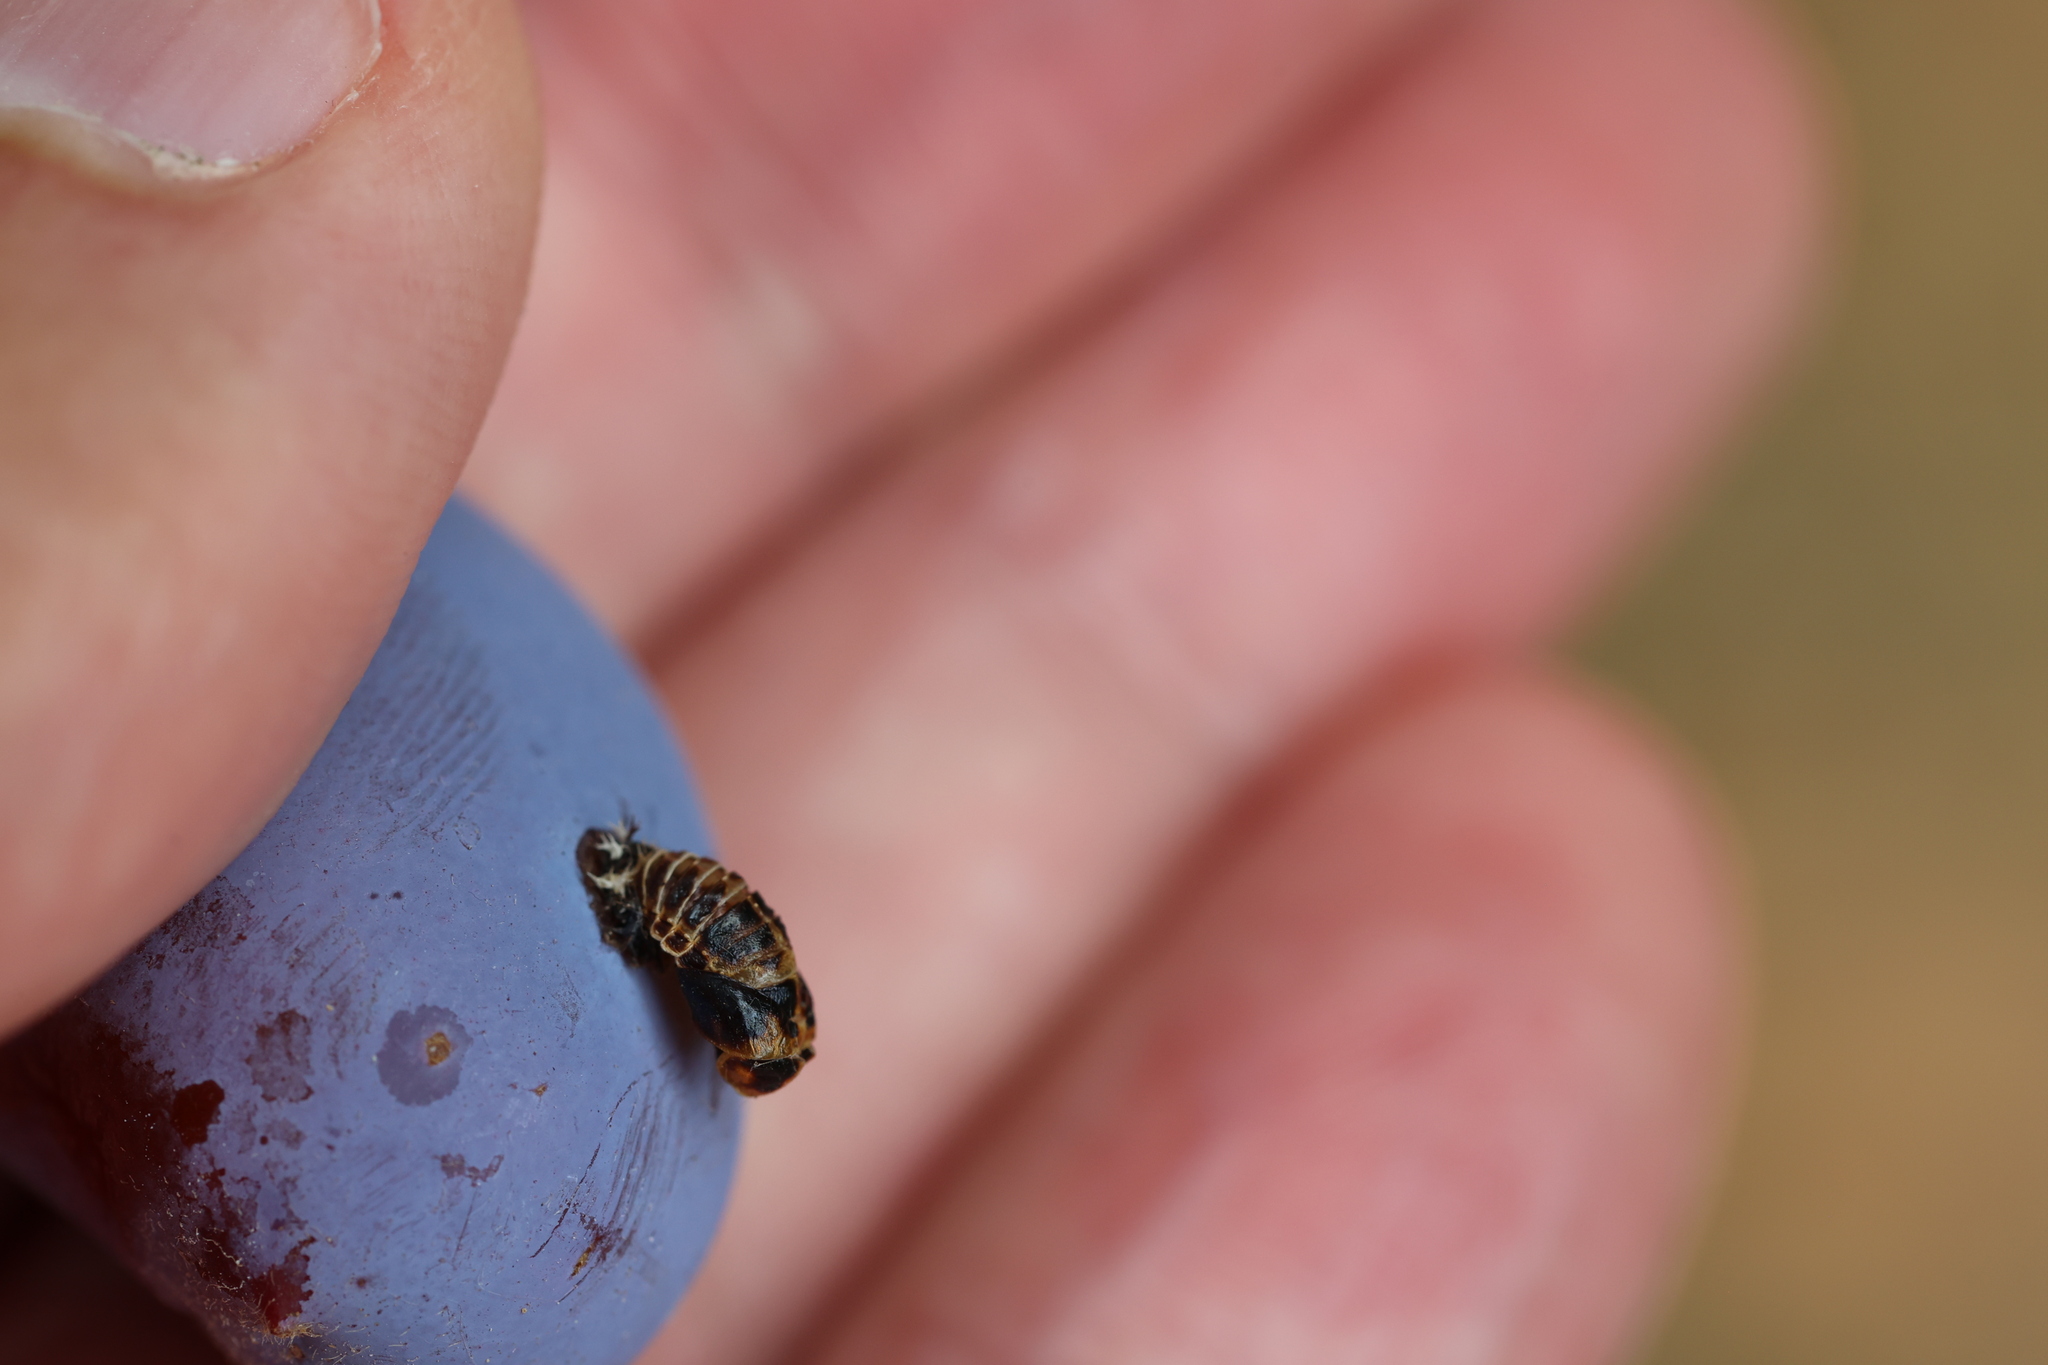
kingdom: Animalia
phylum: Arthropoda
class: Insecta
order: Coleoptera
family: Coccinellidae
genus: Harmonia
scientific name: Harmonia axyridis
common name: Harlequin ladybird
